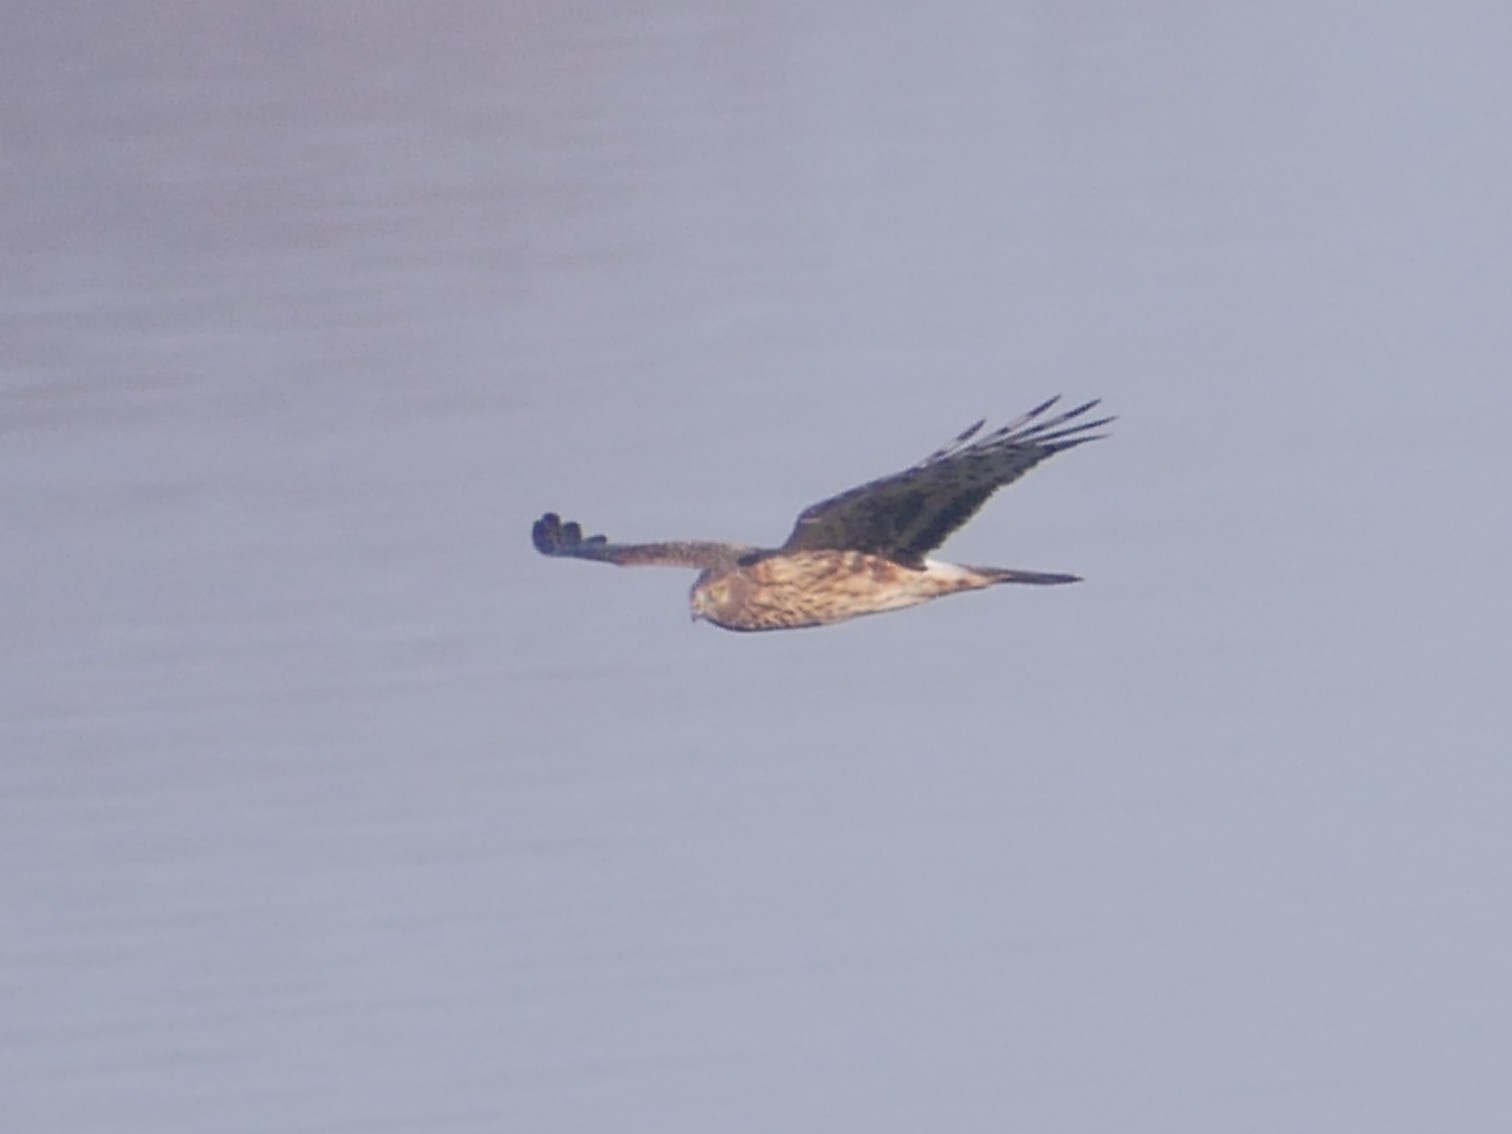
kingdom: Animalia
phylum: Chordata
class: Aves
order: Accipitriformes
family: Accipitridae
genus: Circus
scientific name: Circus cyaneus
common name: Hen harrier
